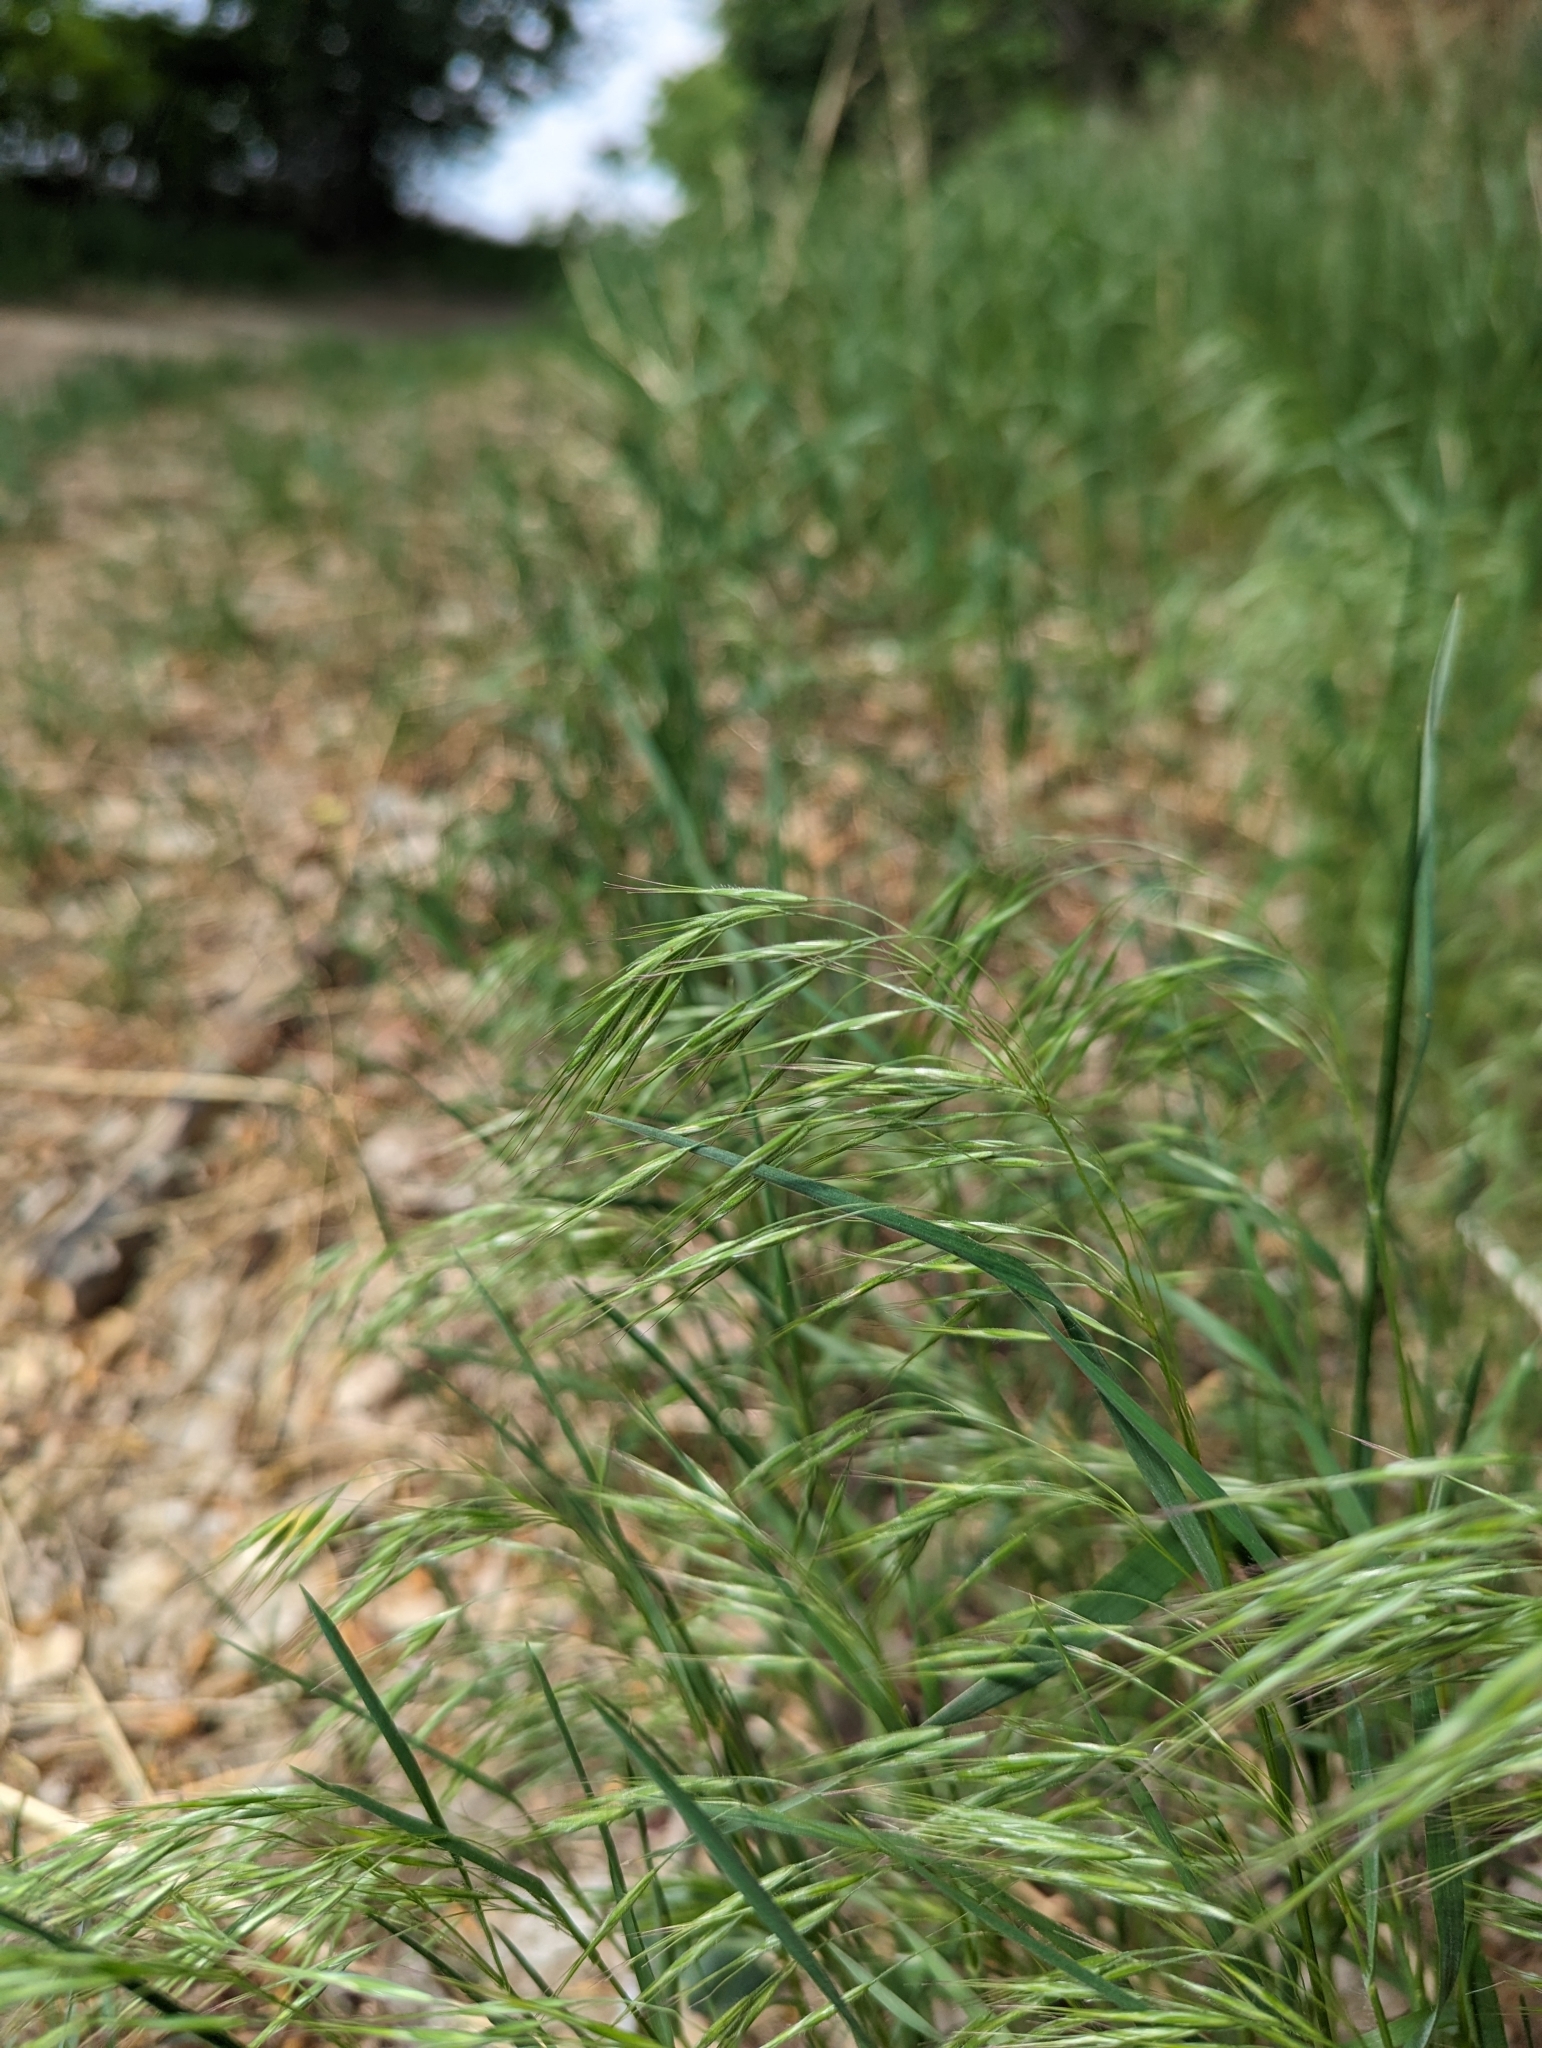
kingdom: Plantae
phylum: Tracheophyta
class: Liliopsida
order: Poales
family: Poaceae
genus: Bromus
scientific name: Bromus tectorum
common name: Cheatgrass
